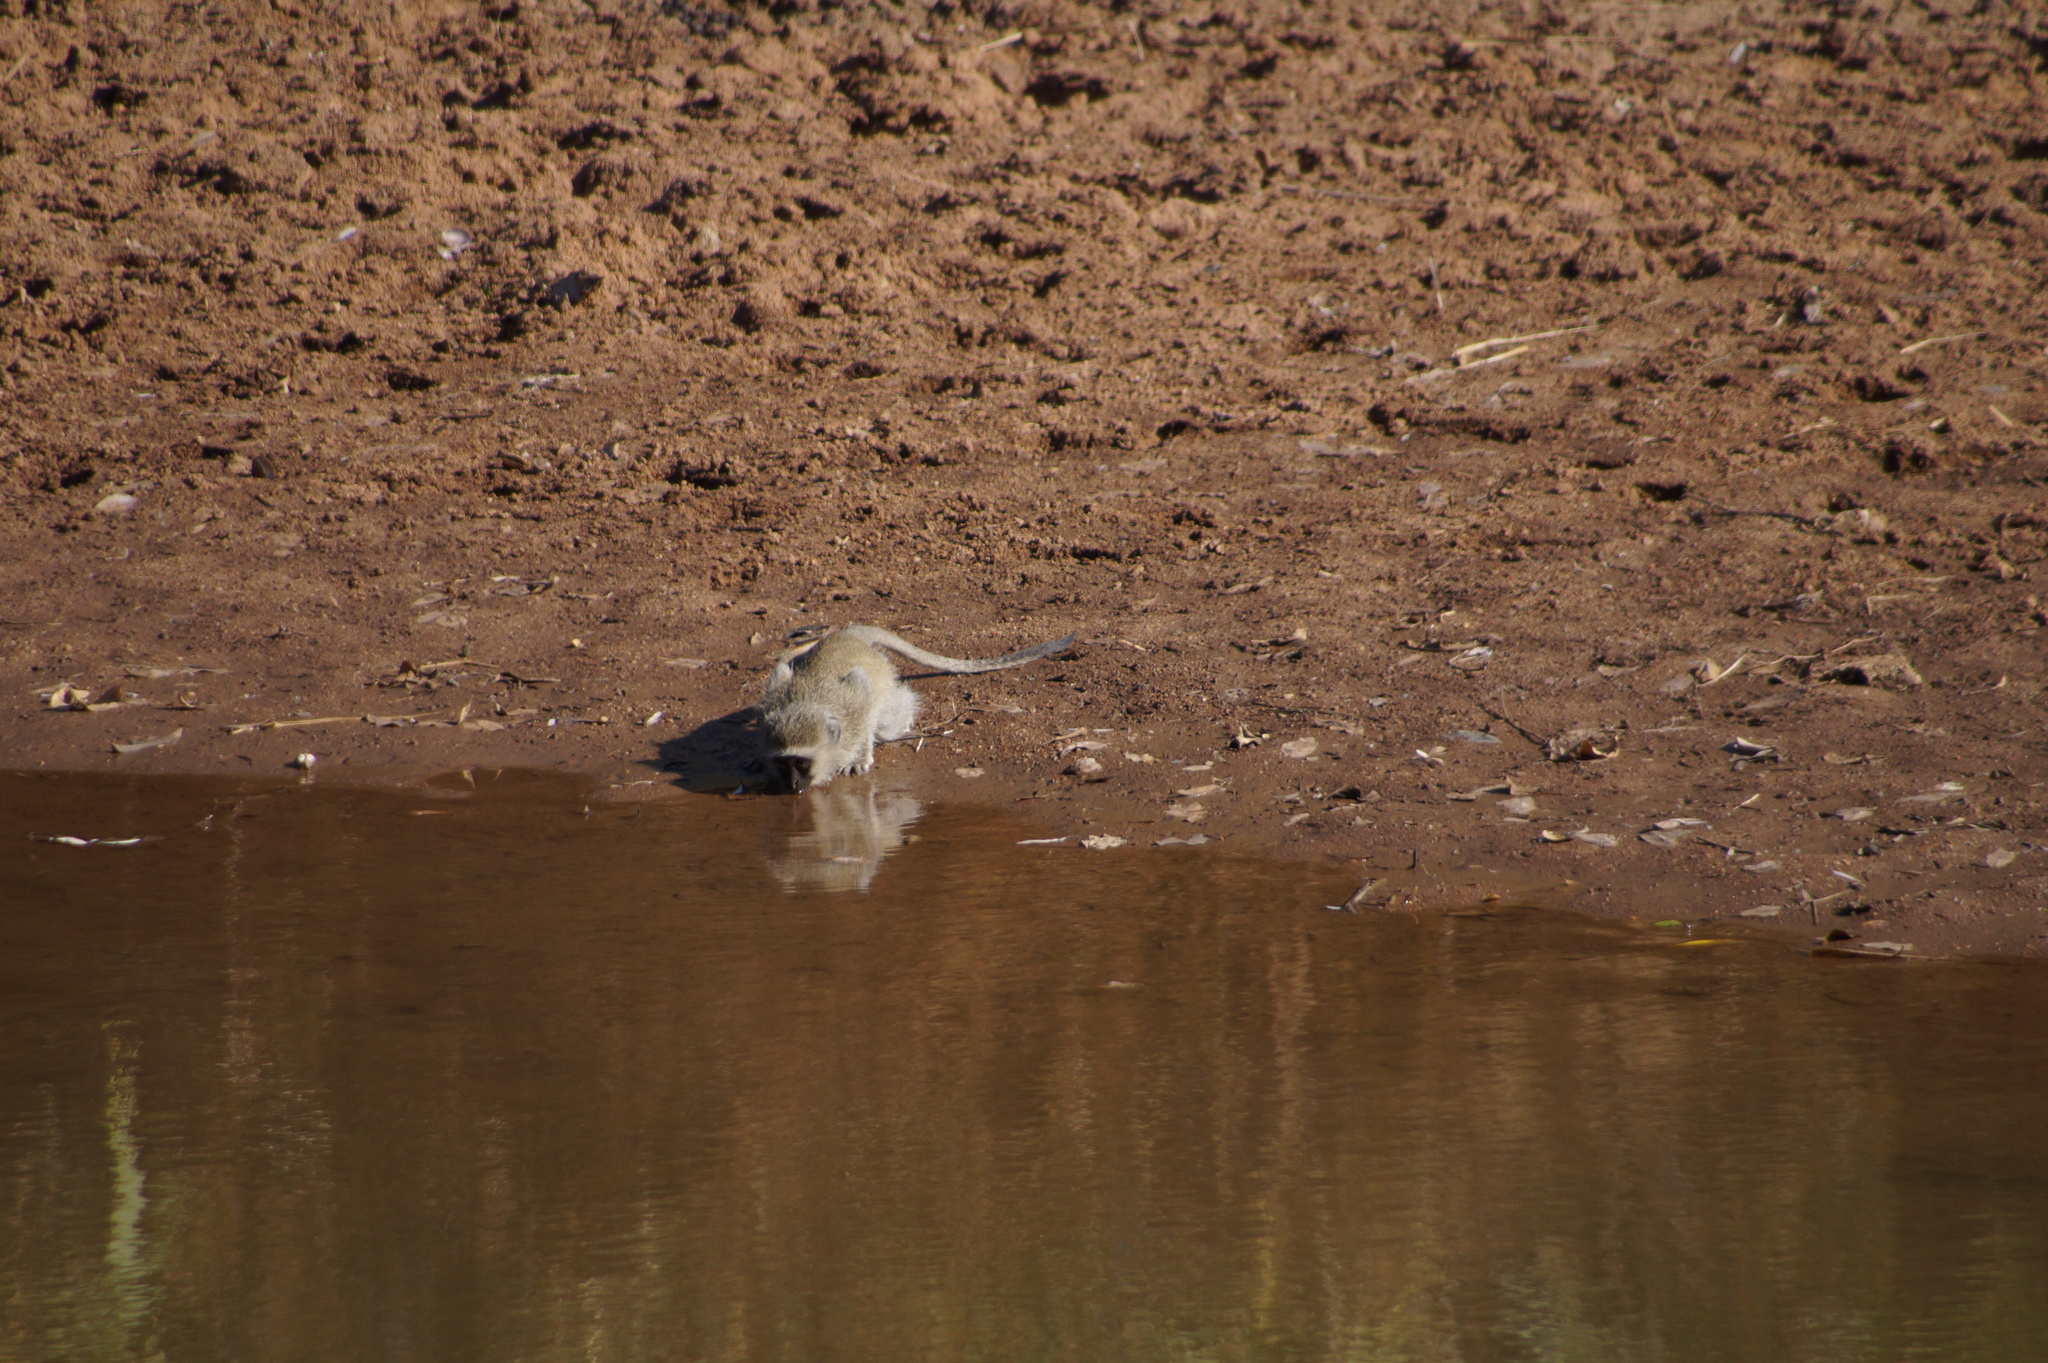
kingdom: Animalia
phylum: Chordata
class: Mammalia
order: Primates
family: Cercopithecidae
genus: Chlorocebus
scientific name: Chlorocebus pygerythrus
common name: Vervet monkey
